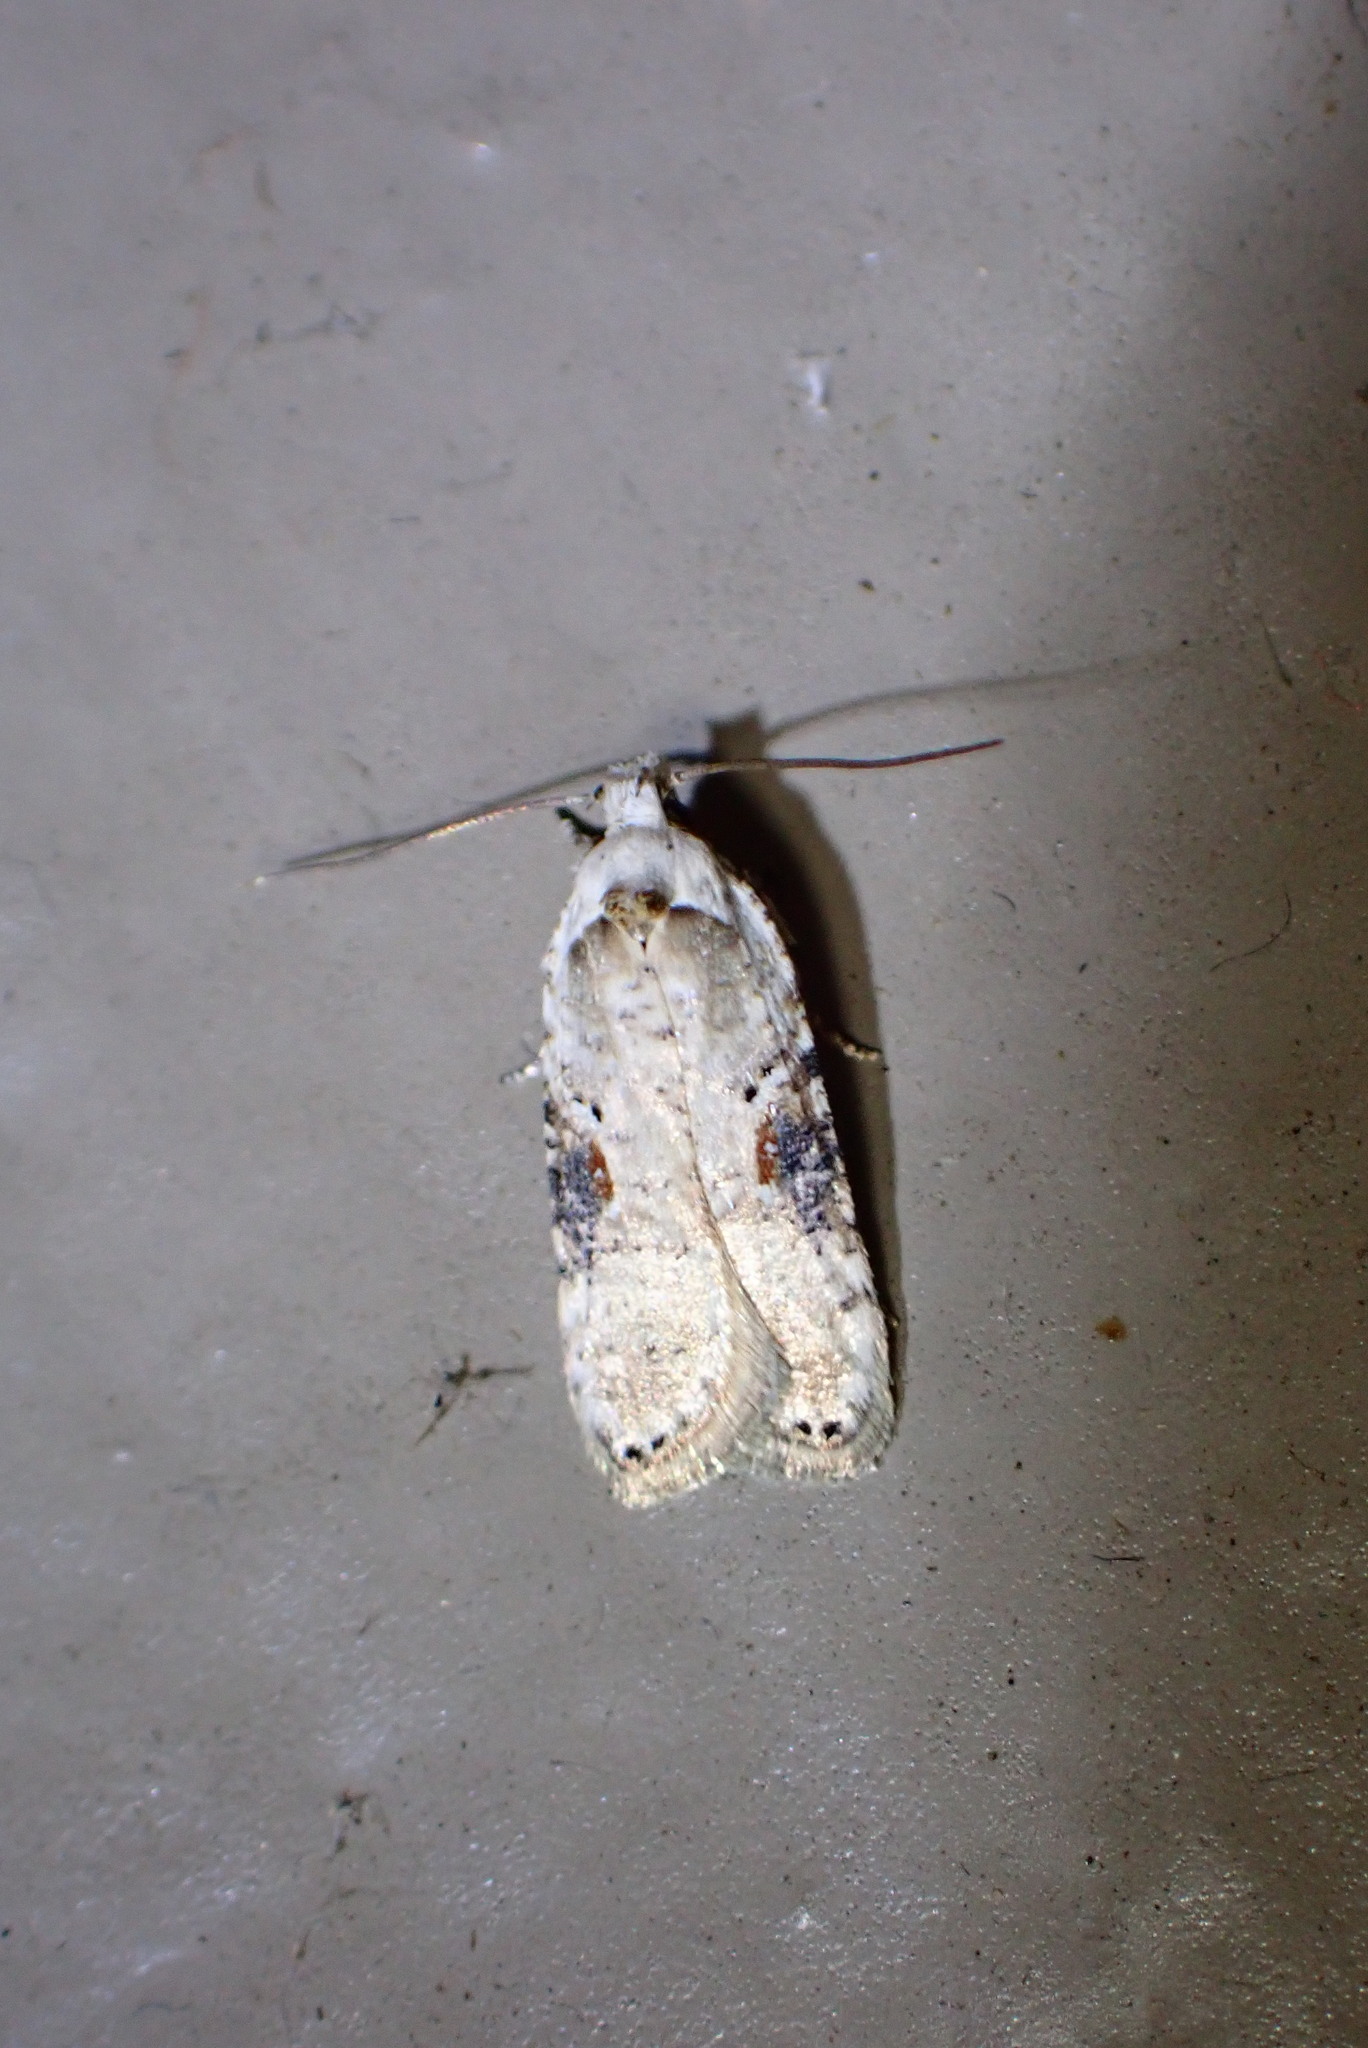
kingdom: Animalia
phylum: Arthropoda
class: Insecta
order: Lepidoptera
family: Depressariidae
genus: Agonopterix
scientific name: Agonopterix alstroemeriana
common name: Moth
